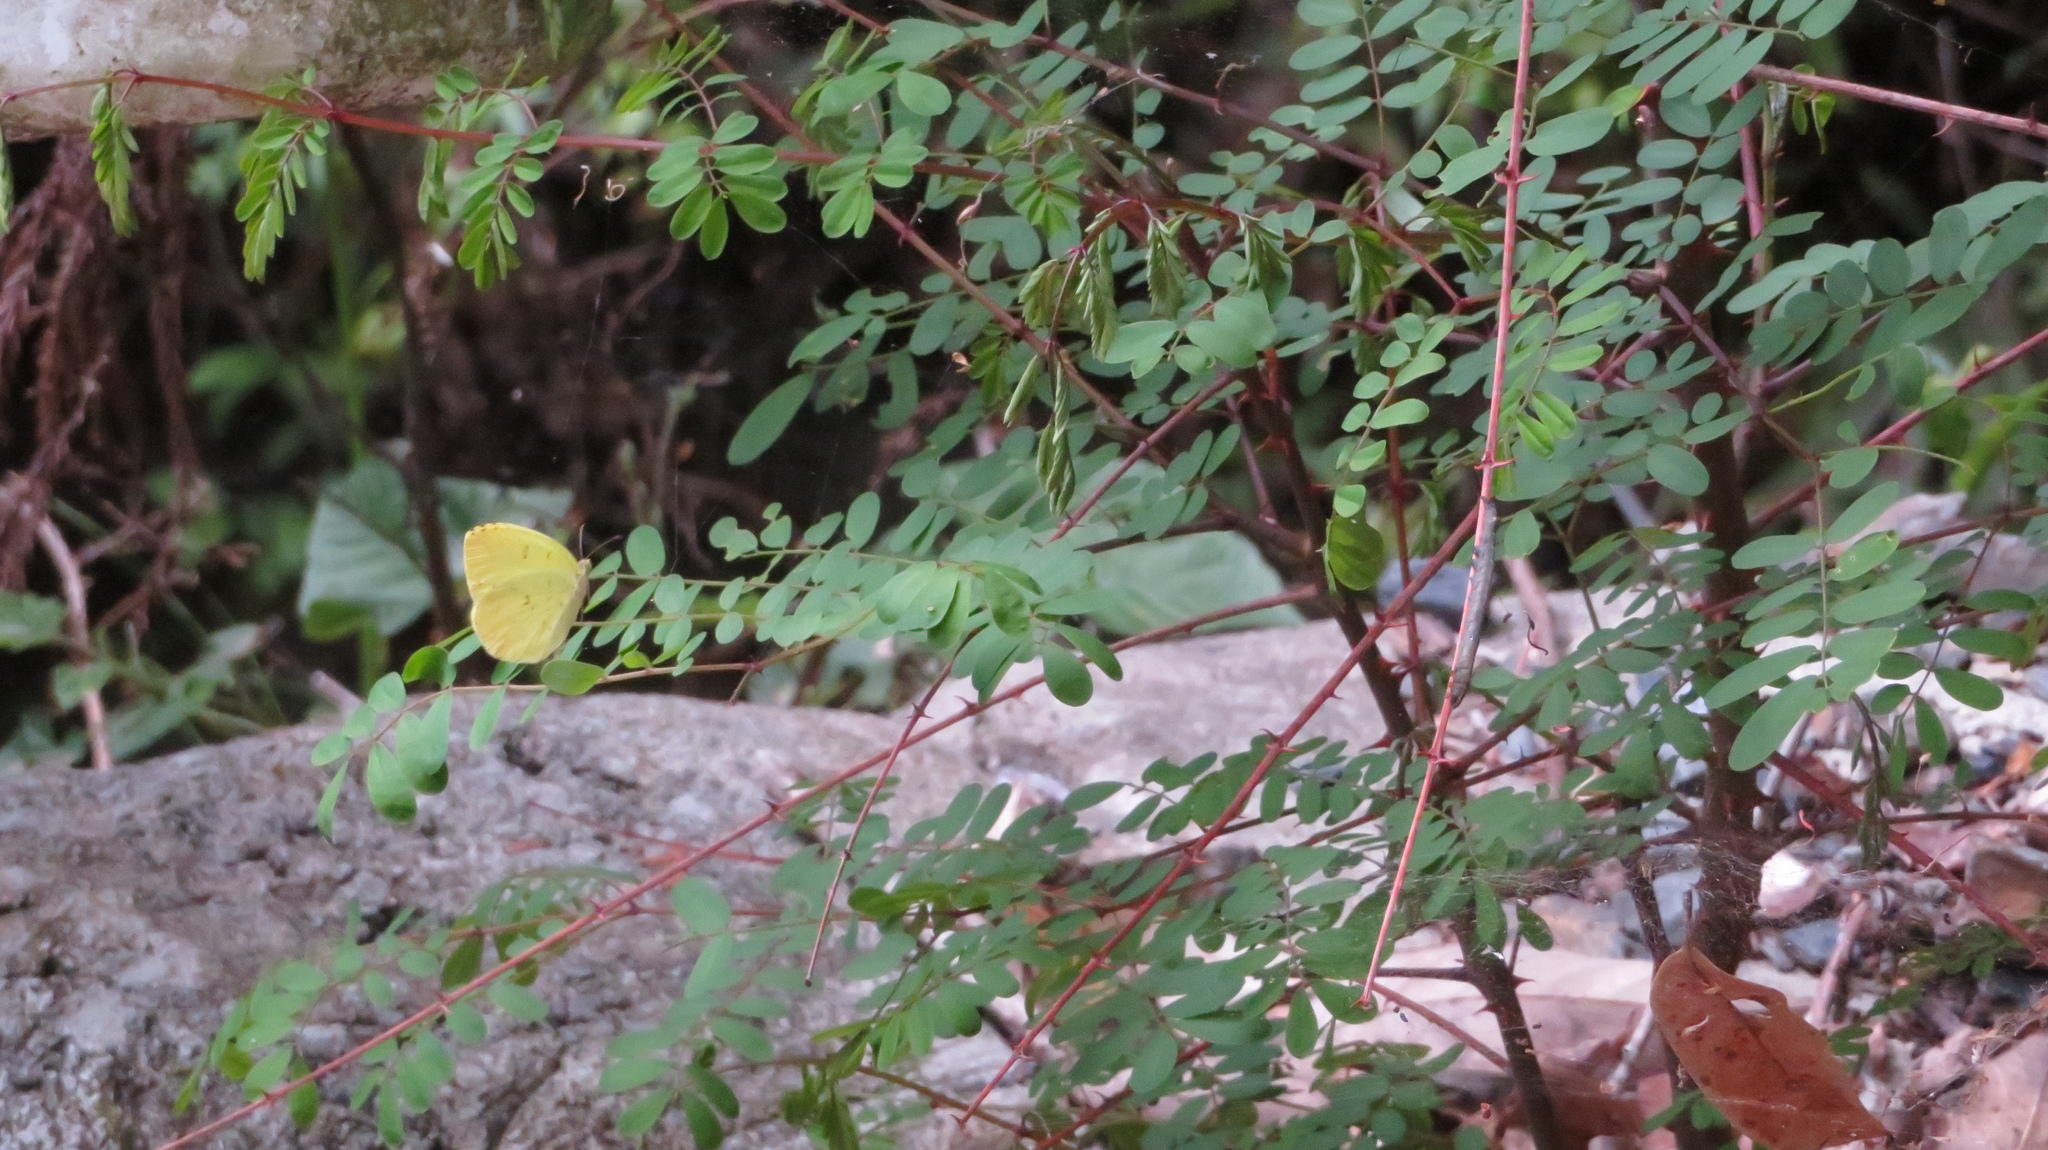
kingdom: Animalia
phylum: Arthropoda
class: Insecta
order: Lepidoptera
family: Pieridae
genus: Eurema
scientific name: Eurema mandarina
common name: Japanese common grass yellow
